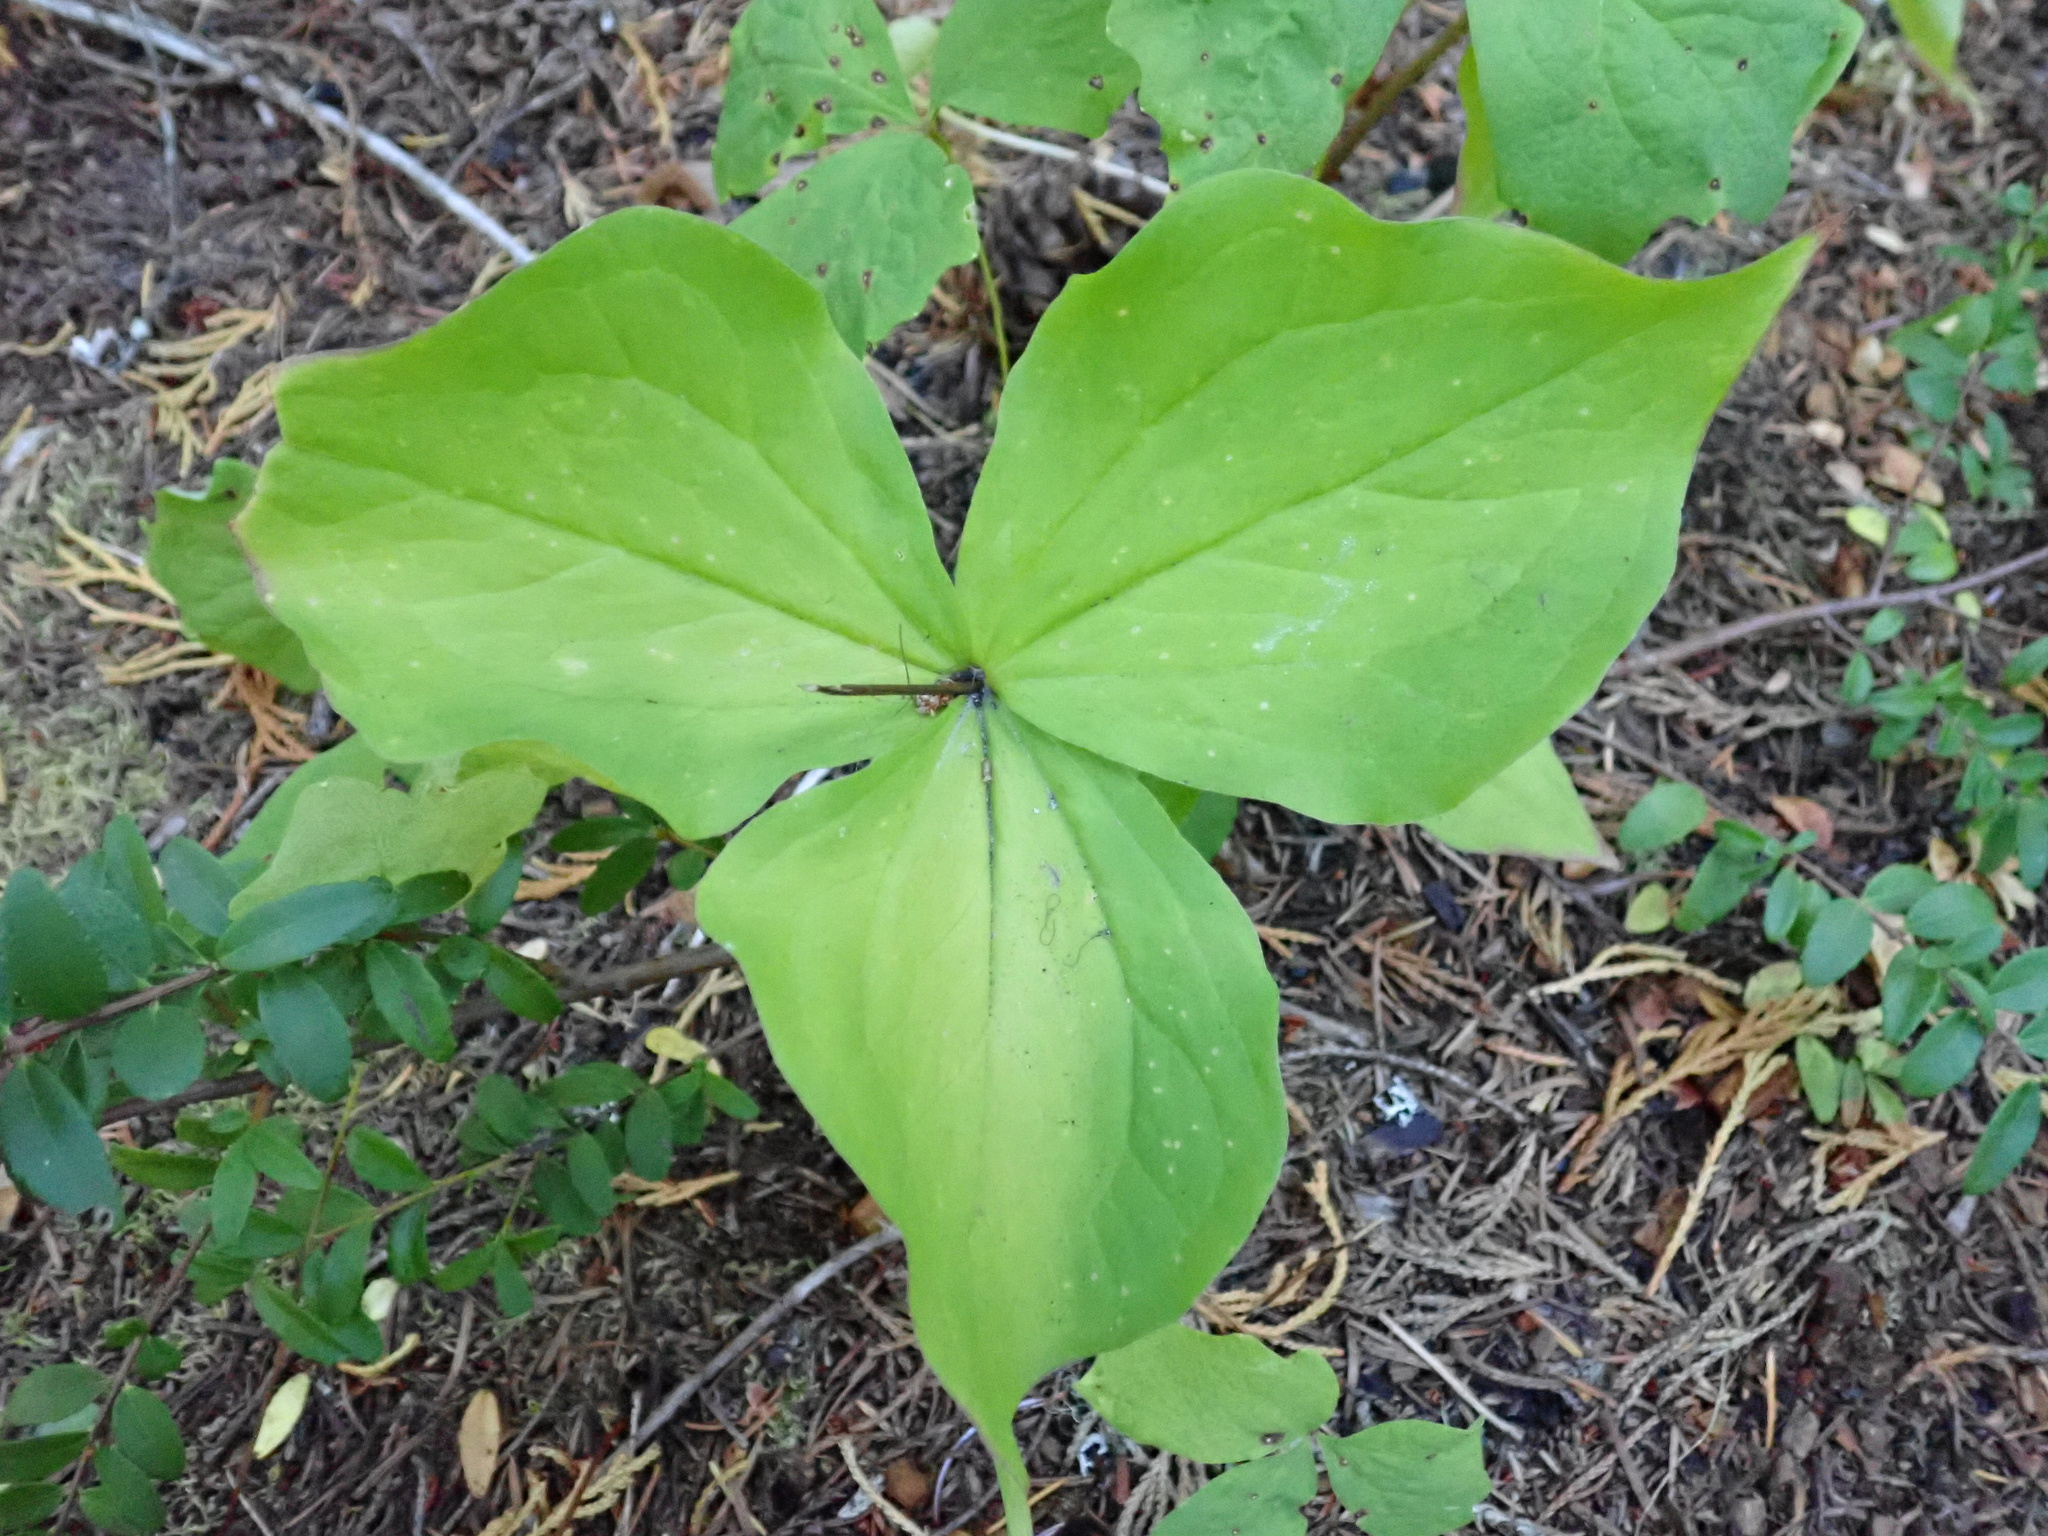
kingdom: Plantae
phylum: Tracheophyta
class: Liliopsida
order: Liliales
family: Melanthiaceae
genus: Trillium
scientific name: Trillium ovatum
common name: Pacific trillium
